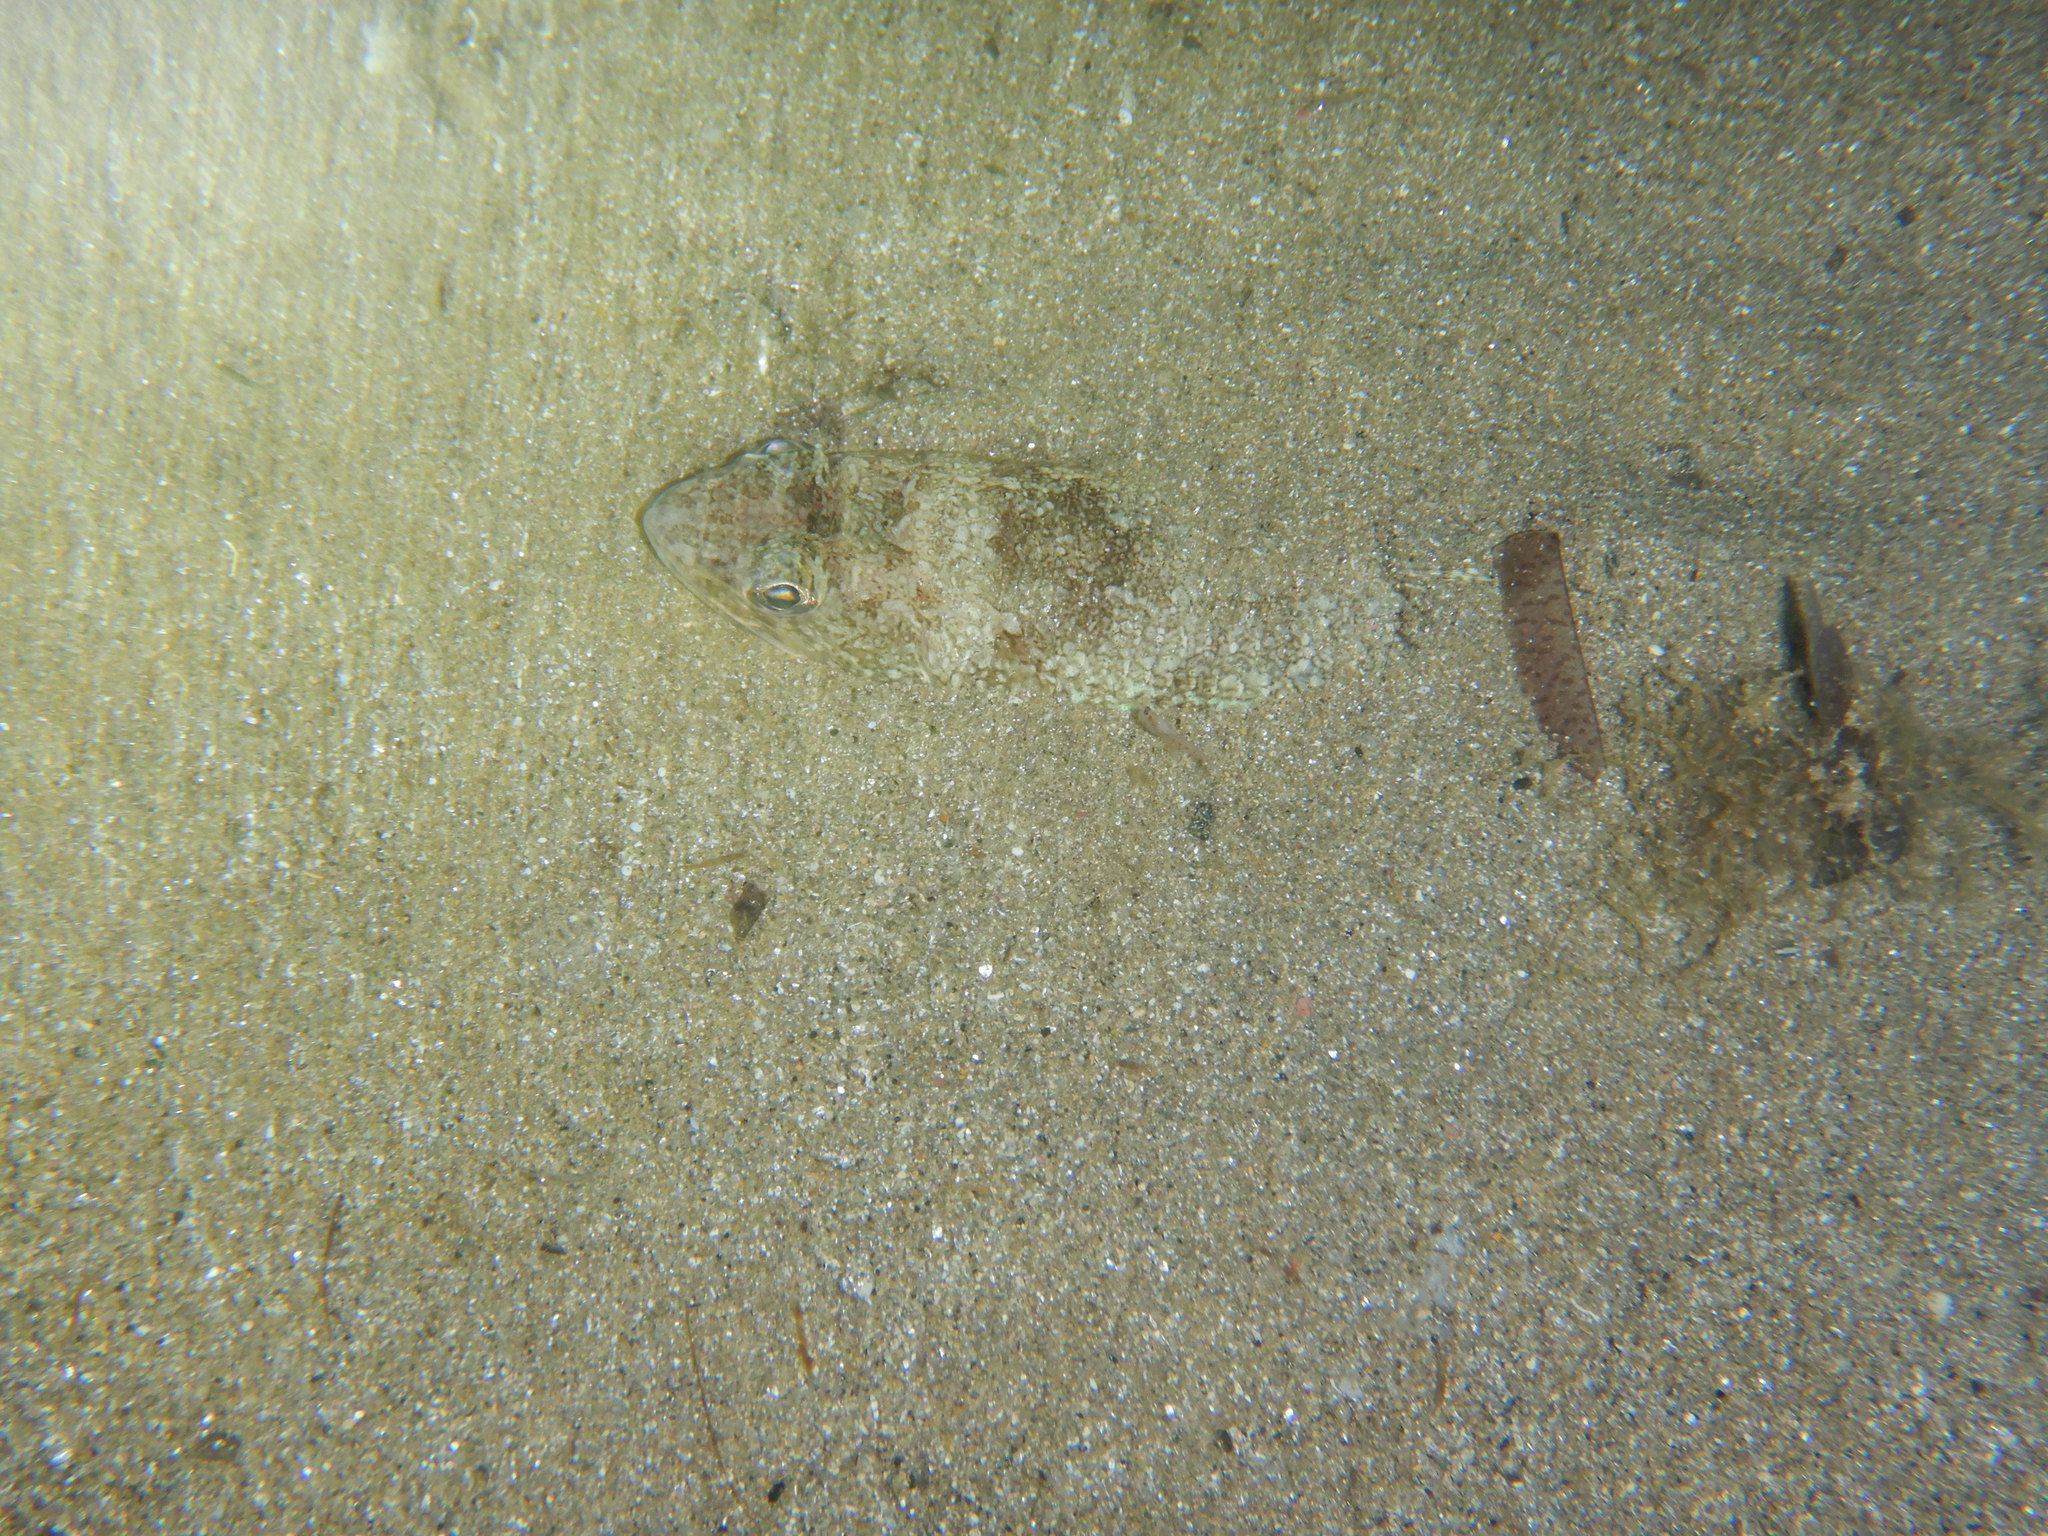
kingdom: Animalia
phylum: Chordata
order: Aulopiformes
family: Synodontidae
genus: Synodus
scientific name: Synodus saurus
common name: Atlantic lizardfish
